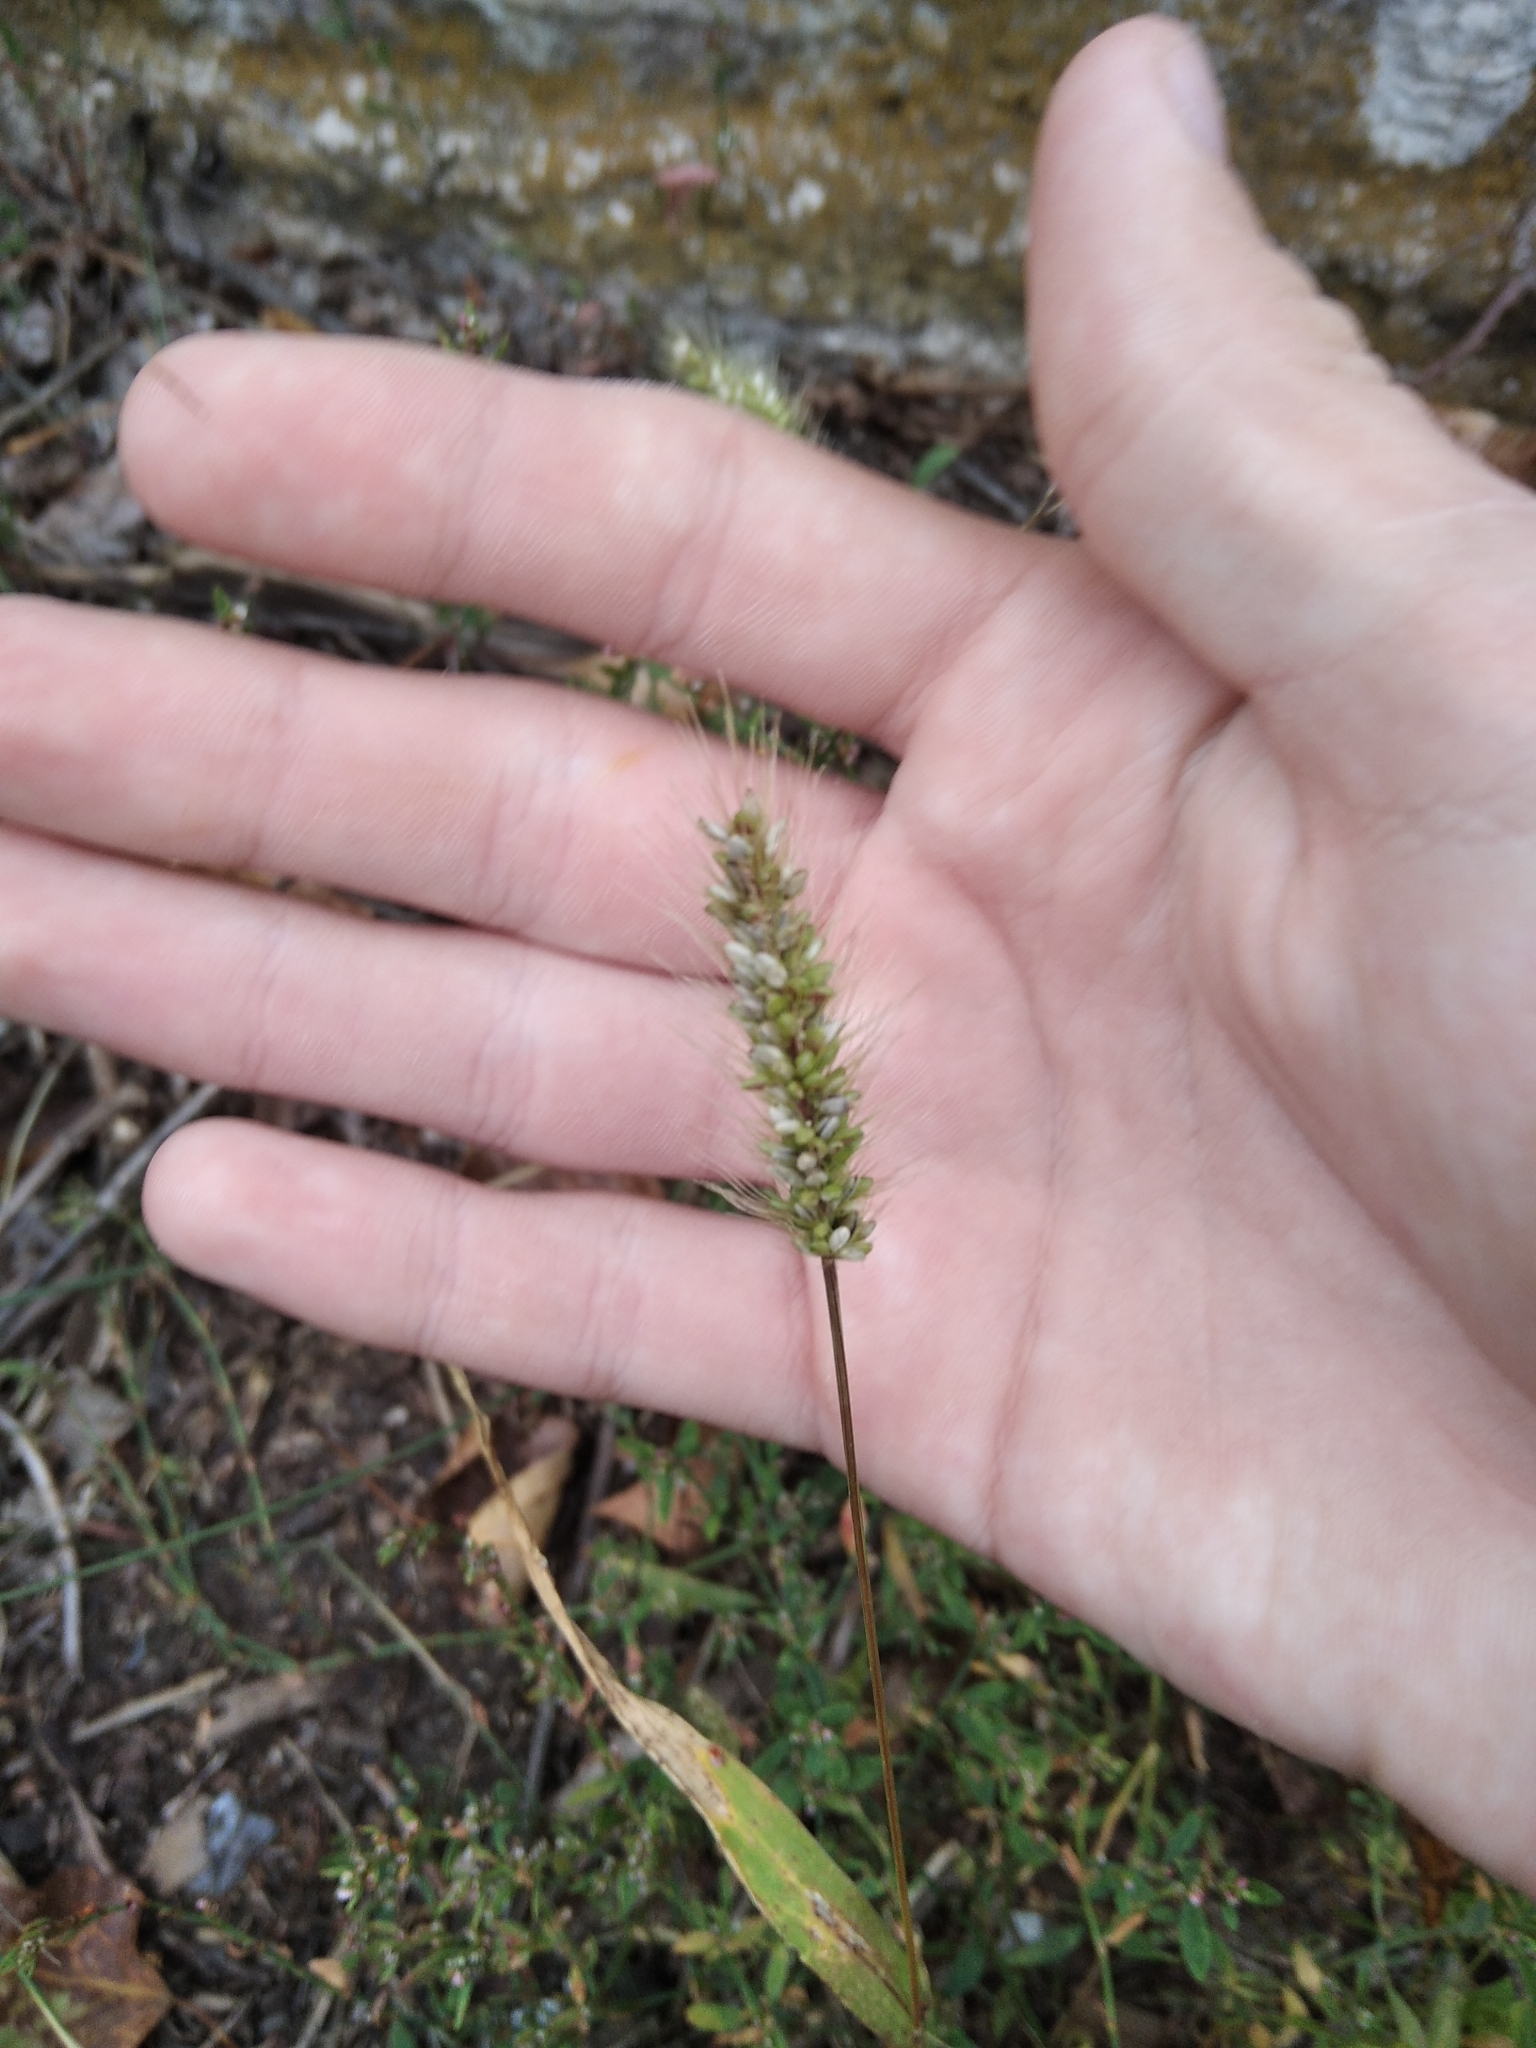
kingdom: Plantae
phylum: Tracheophyta
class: Liliopsida
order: Poales
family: Poaceae
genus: Setaria
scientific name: Setaria viridis
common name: Green bristlegrass
